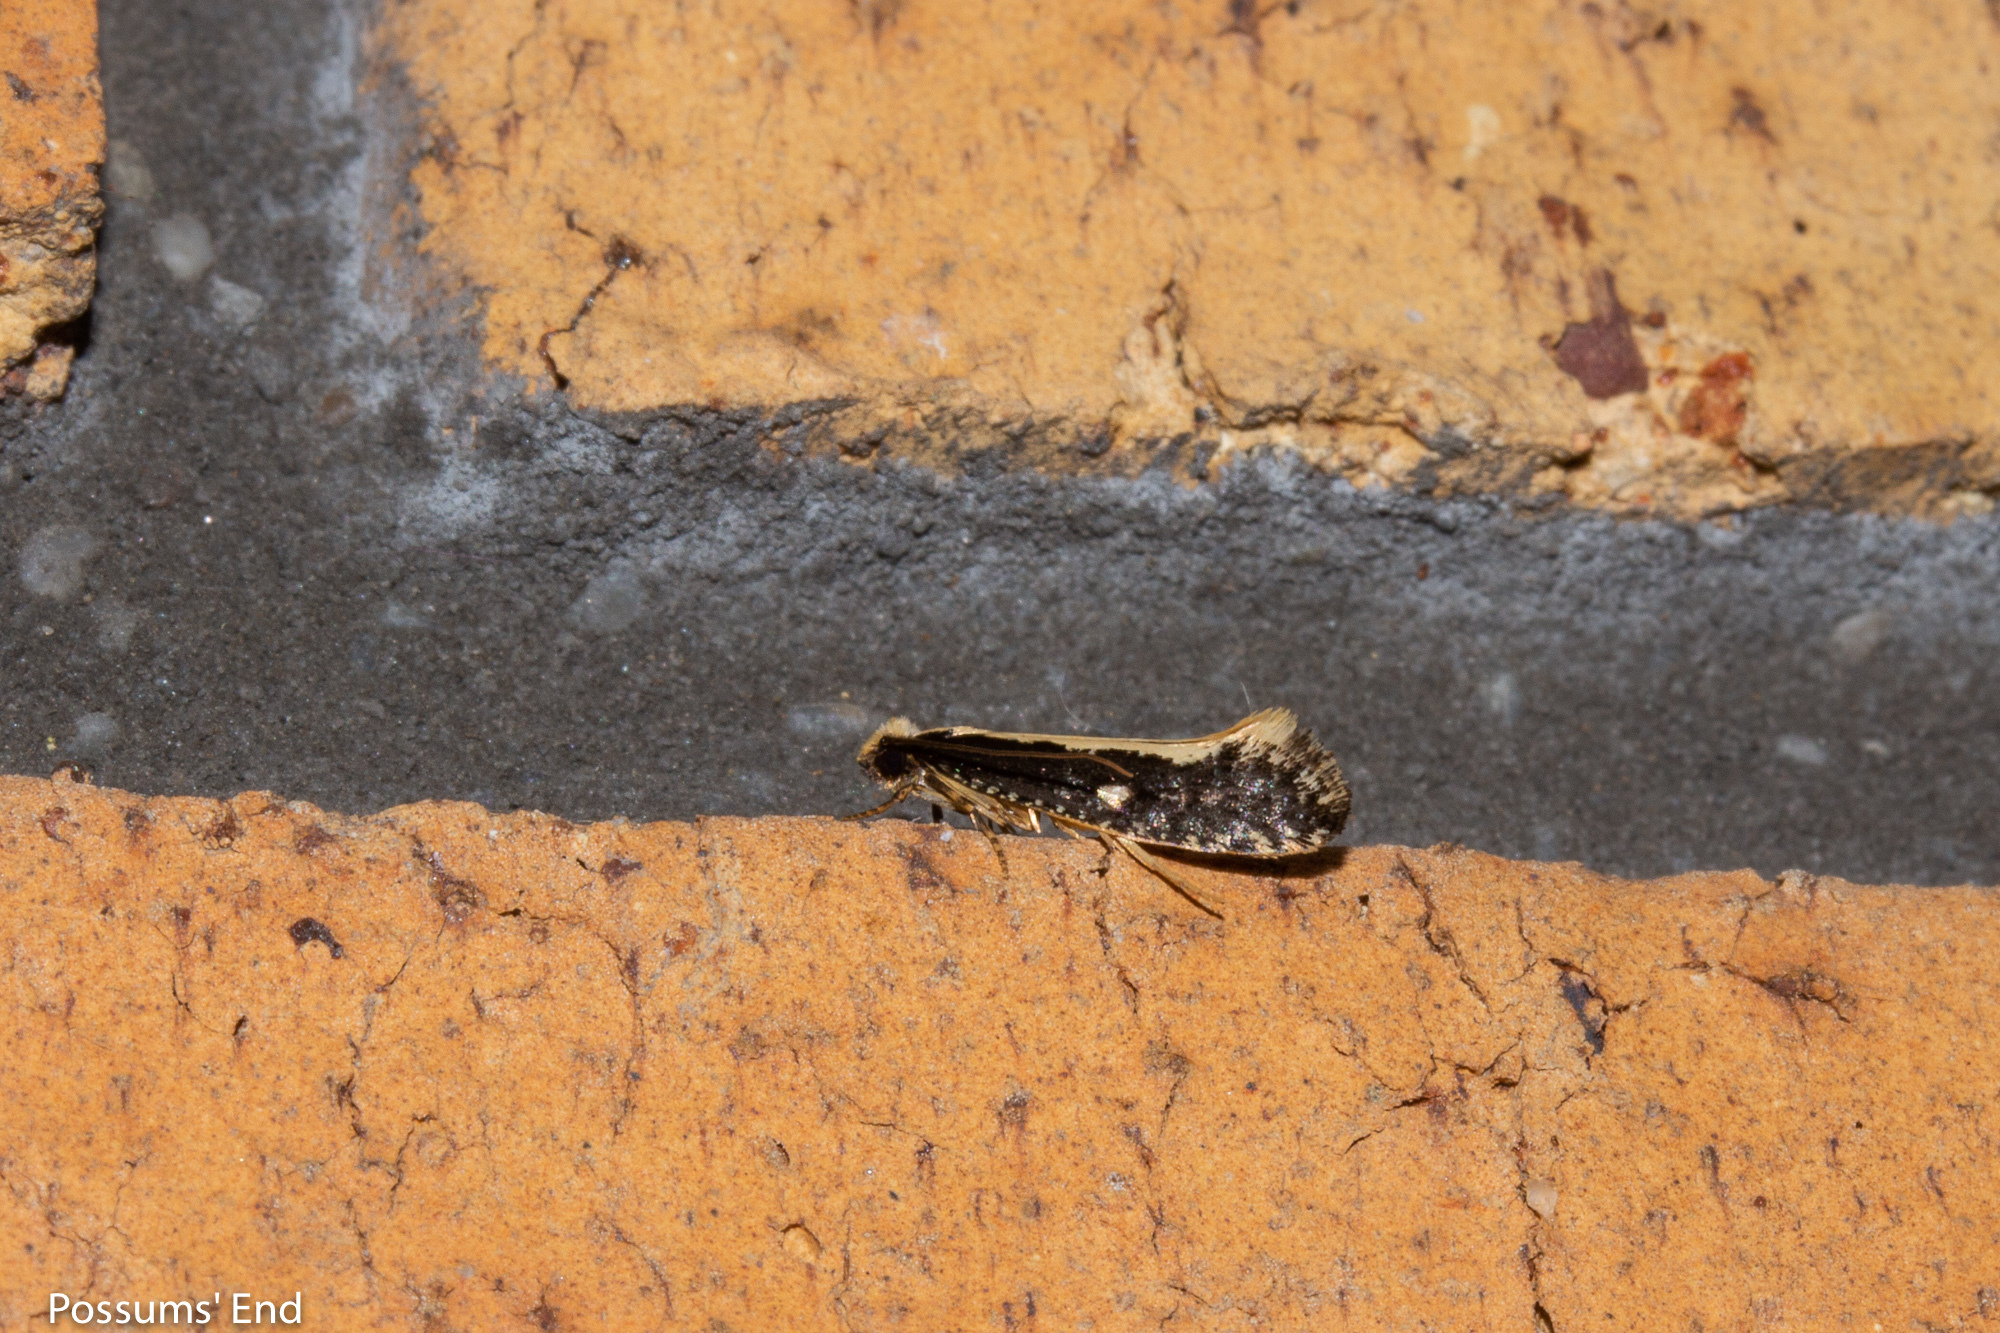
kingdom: Animalia
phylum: Arthropoda
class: Insecta
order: Lepidoptera
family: Tineidae
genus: Monopis
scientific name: Monopis ethelella
